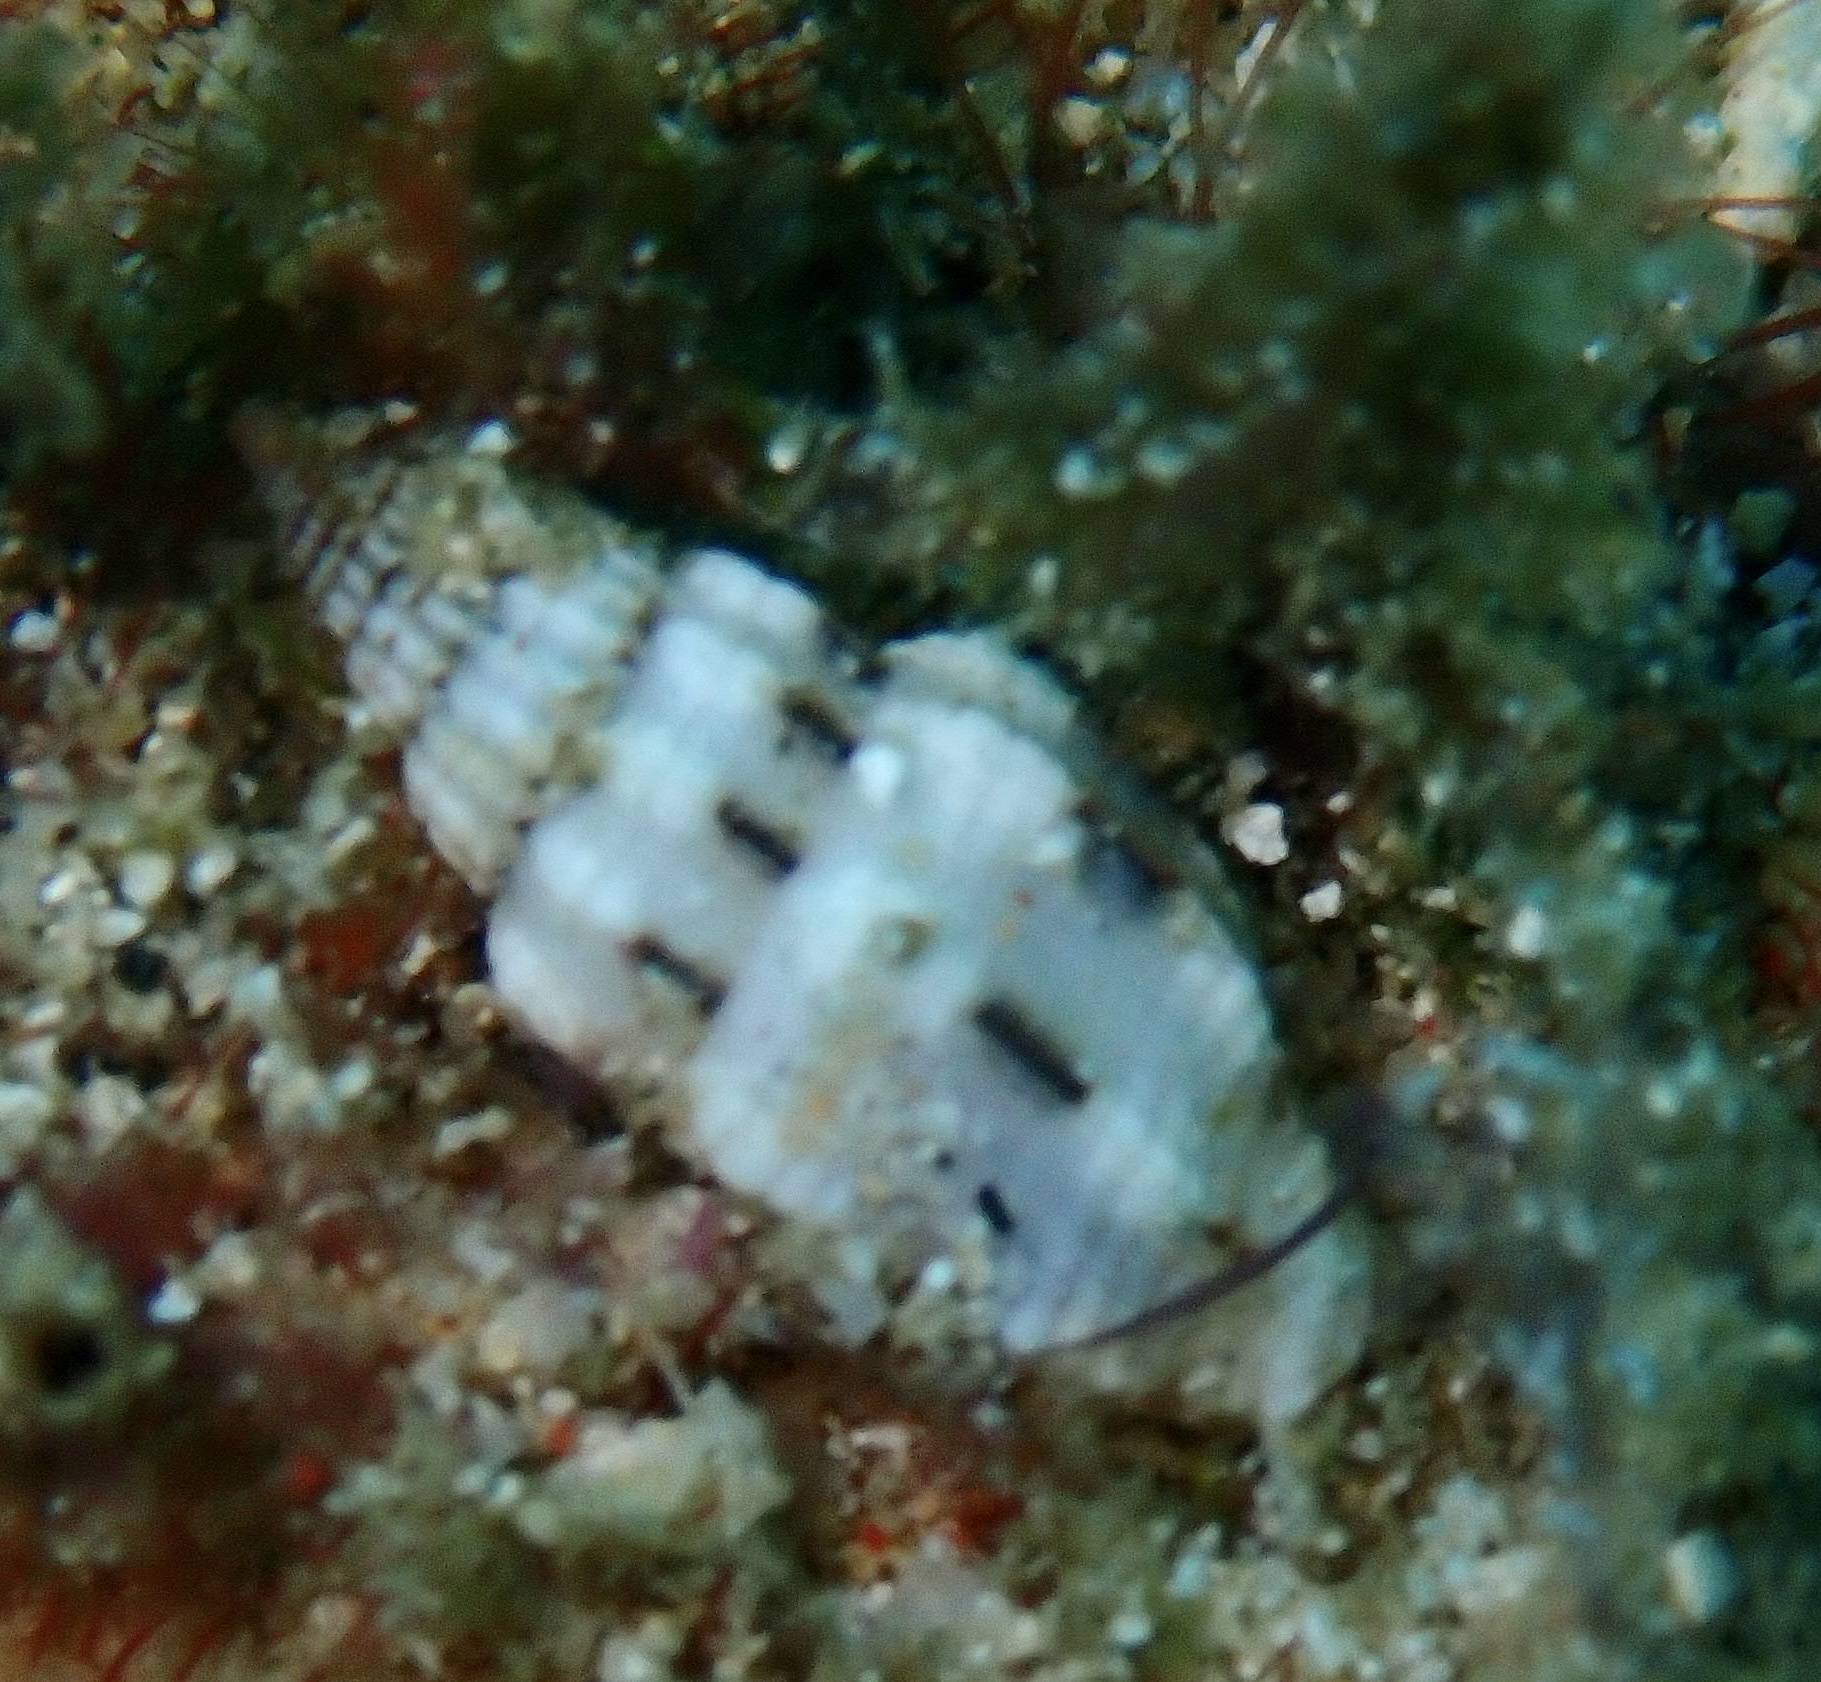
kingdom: Animalia
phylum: Mollusca
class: Gastropoda
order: Neogastropoda
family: Costellariidae
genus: Vexillum
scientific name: Vexillum exasperatum
